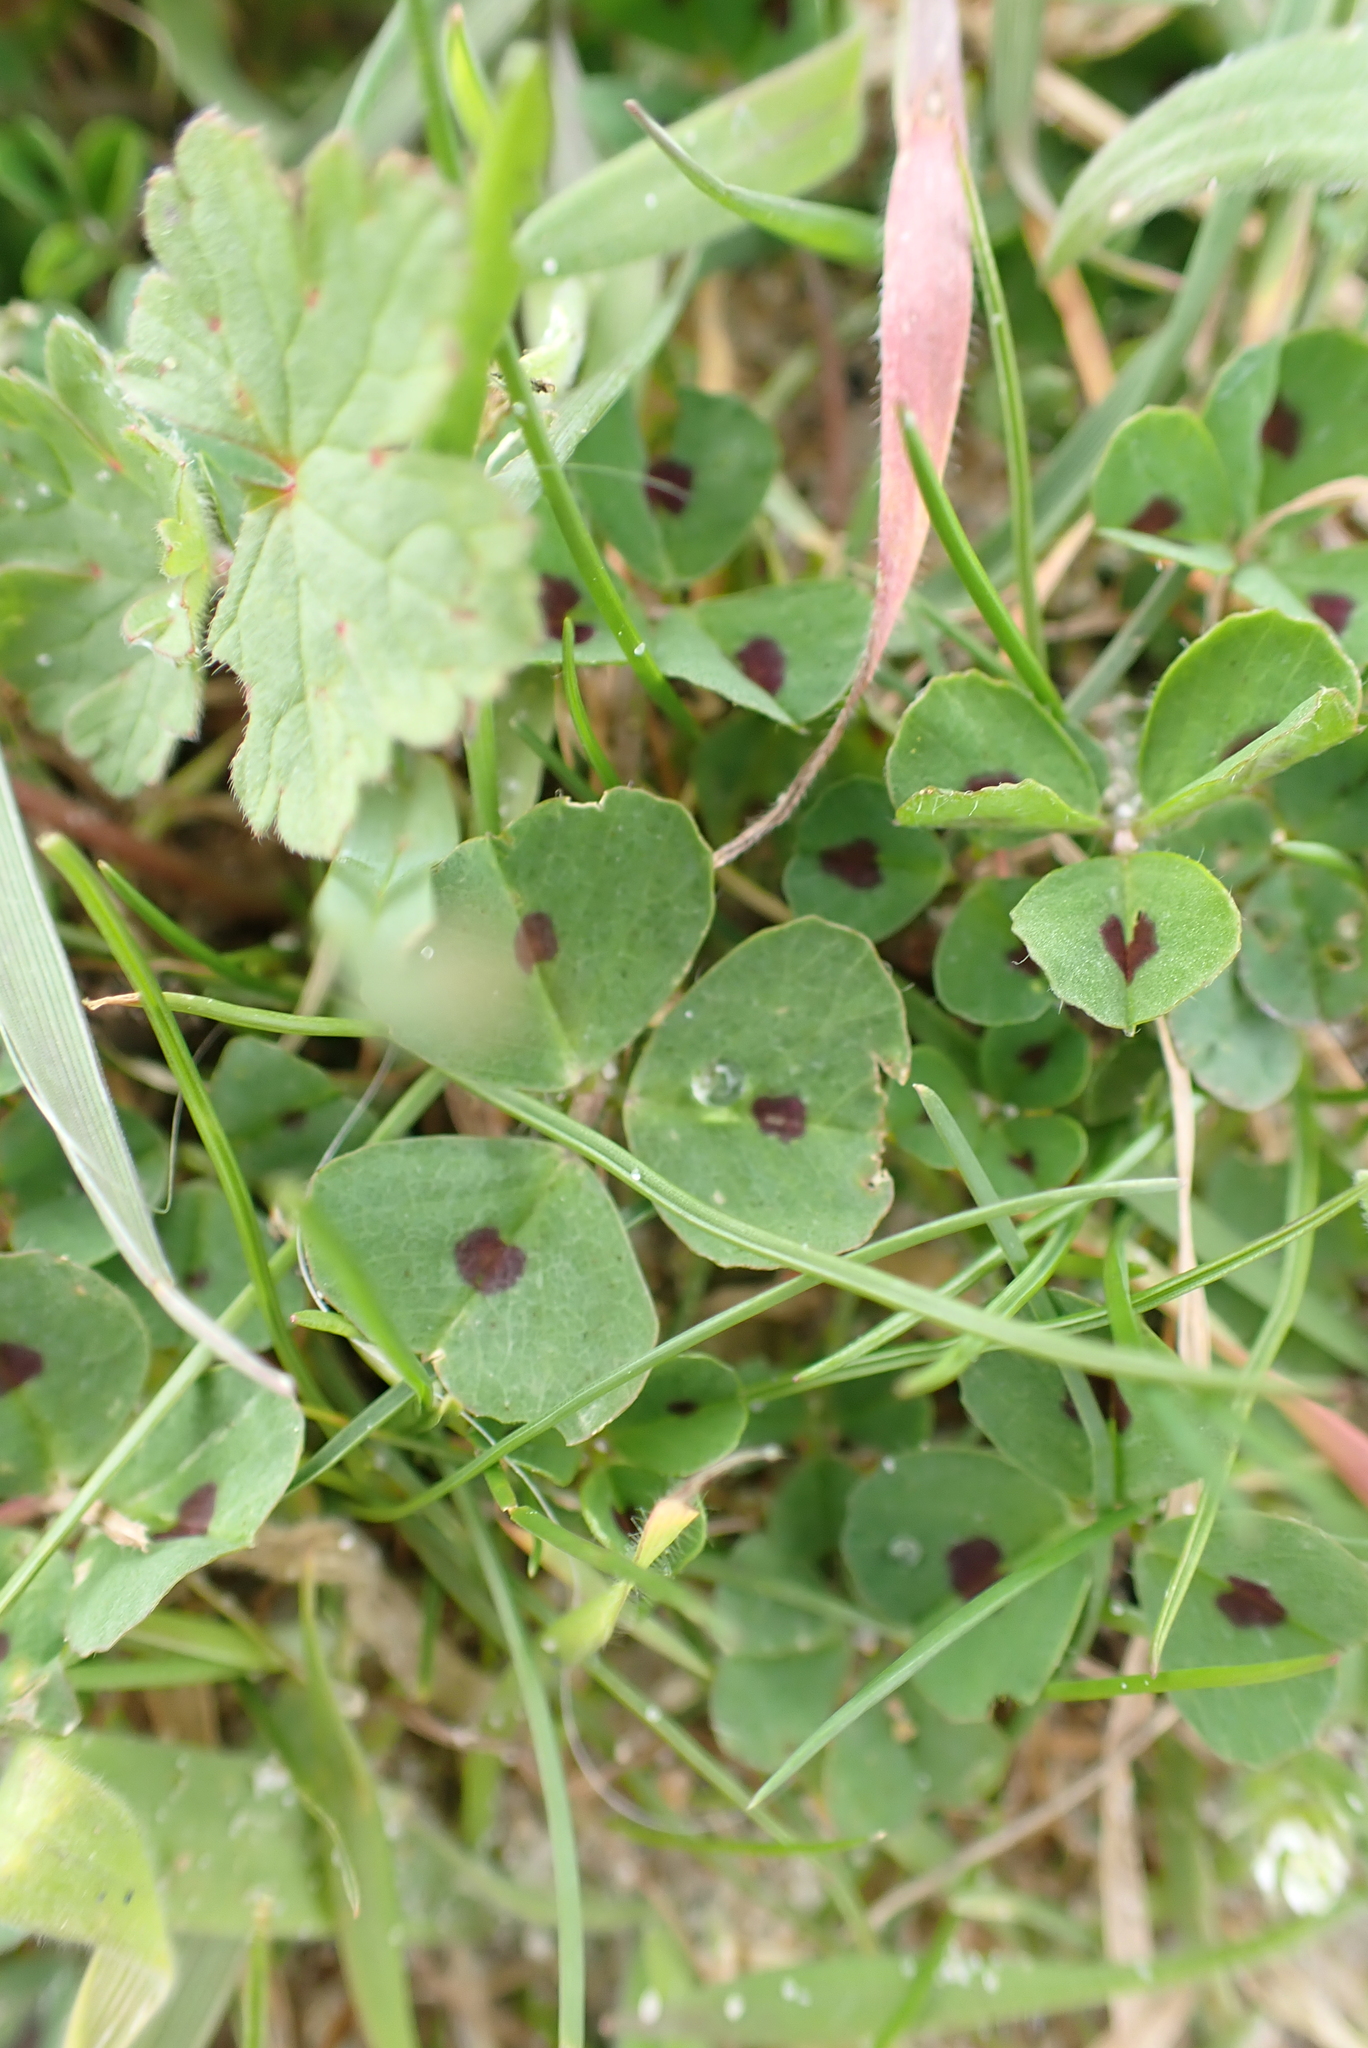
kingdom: Plantae
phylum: Tracheophyta
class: Magnoliopsida
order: Fabales
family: Fabaceae
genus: Medicago
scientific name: Medicago arabica
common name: Spotted medick
